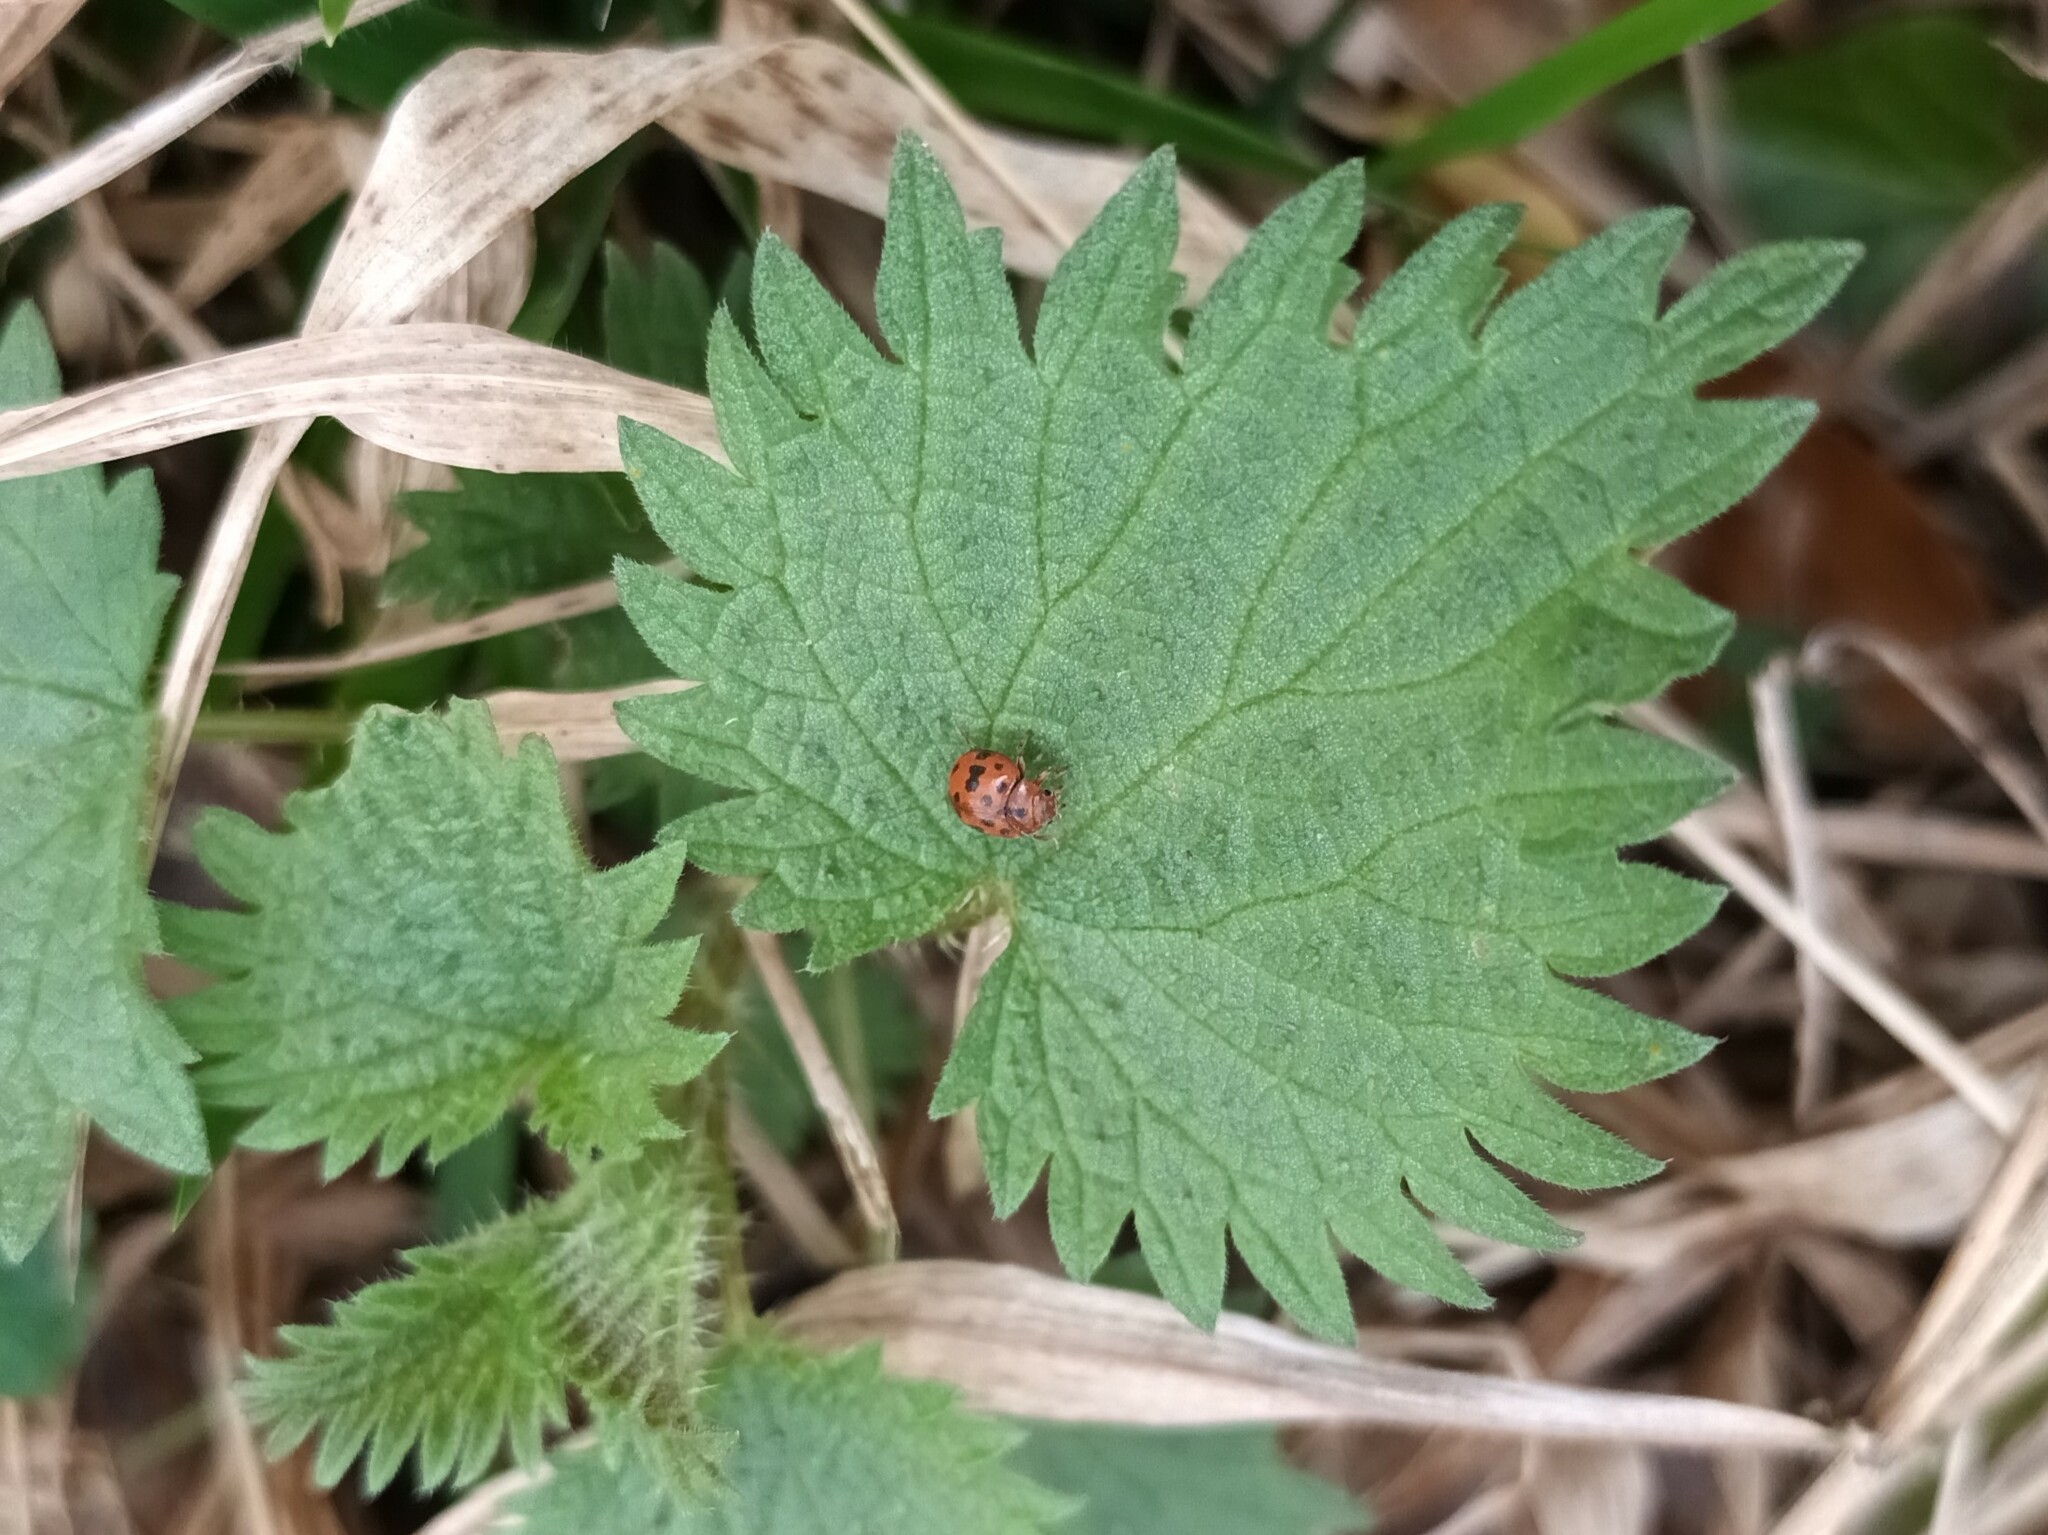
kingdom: Animalia
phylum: Arthropoda
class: Insecta
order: Coleoptera
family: Coccinellidae
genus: Subcoccinella
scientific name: Subcoccinella vigintiquatuorpunctata
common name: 24-spot ladybird
